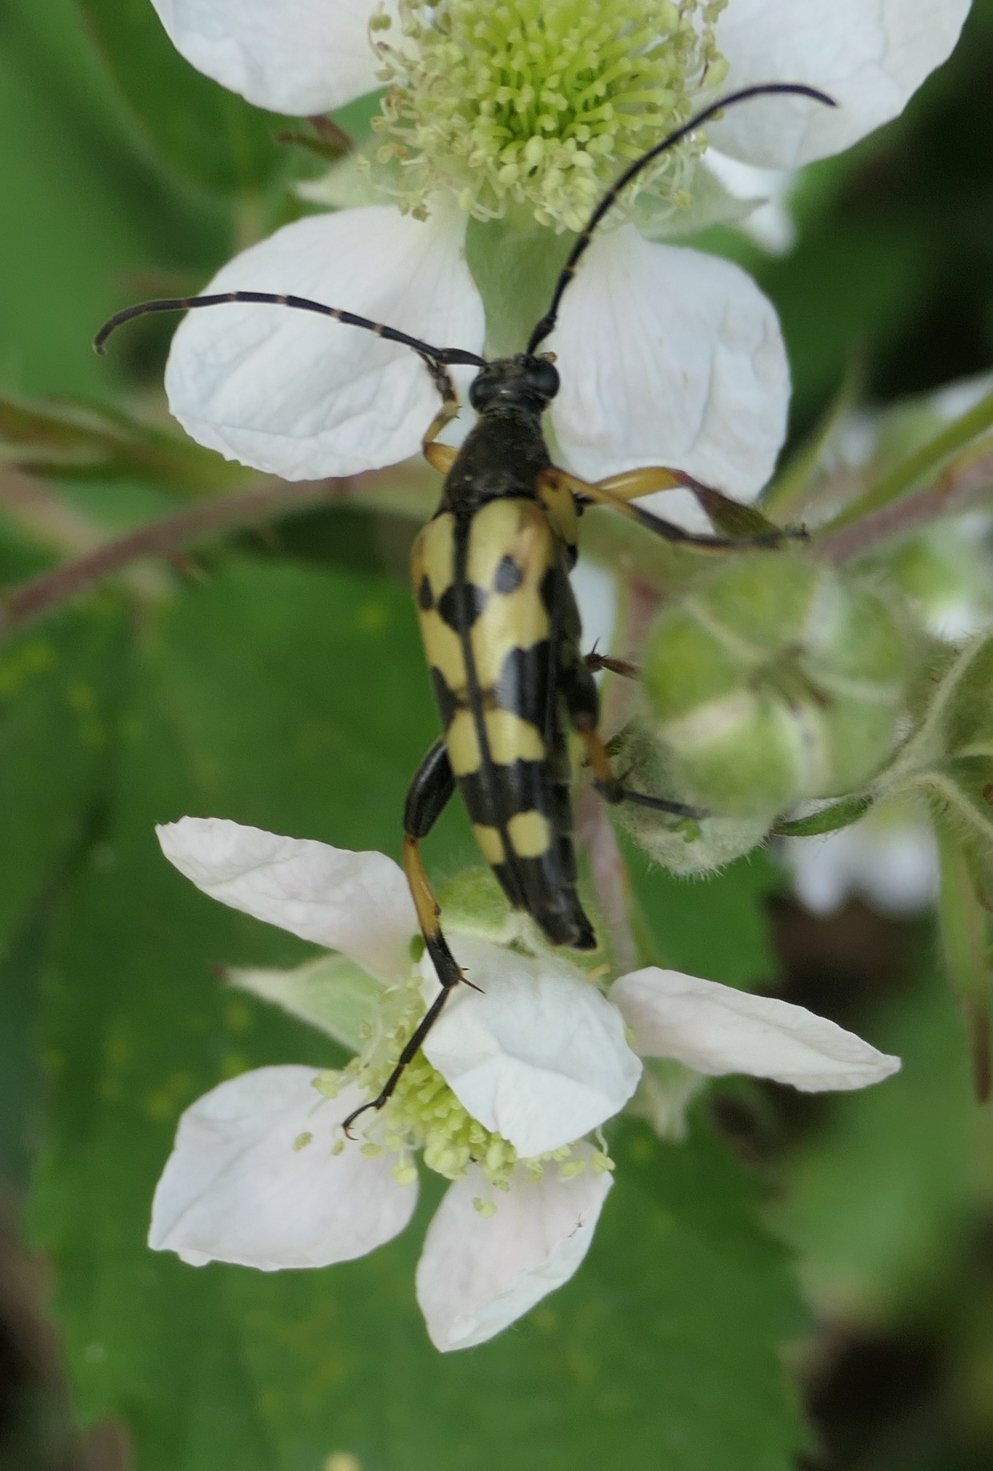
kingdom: Animalia
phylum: Arthropoda
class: Insecta
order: Coleoptera
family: Cerambycidae
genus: Rutpela
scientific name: Rutpela maculata
